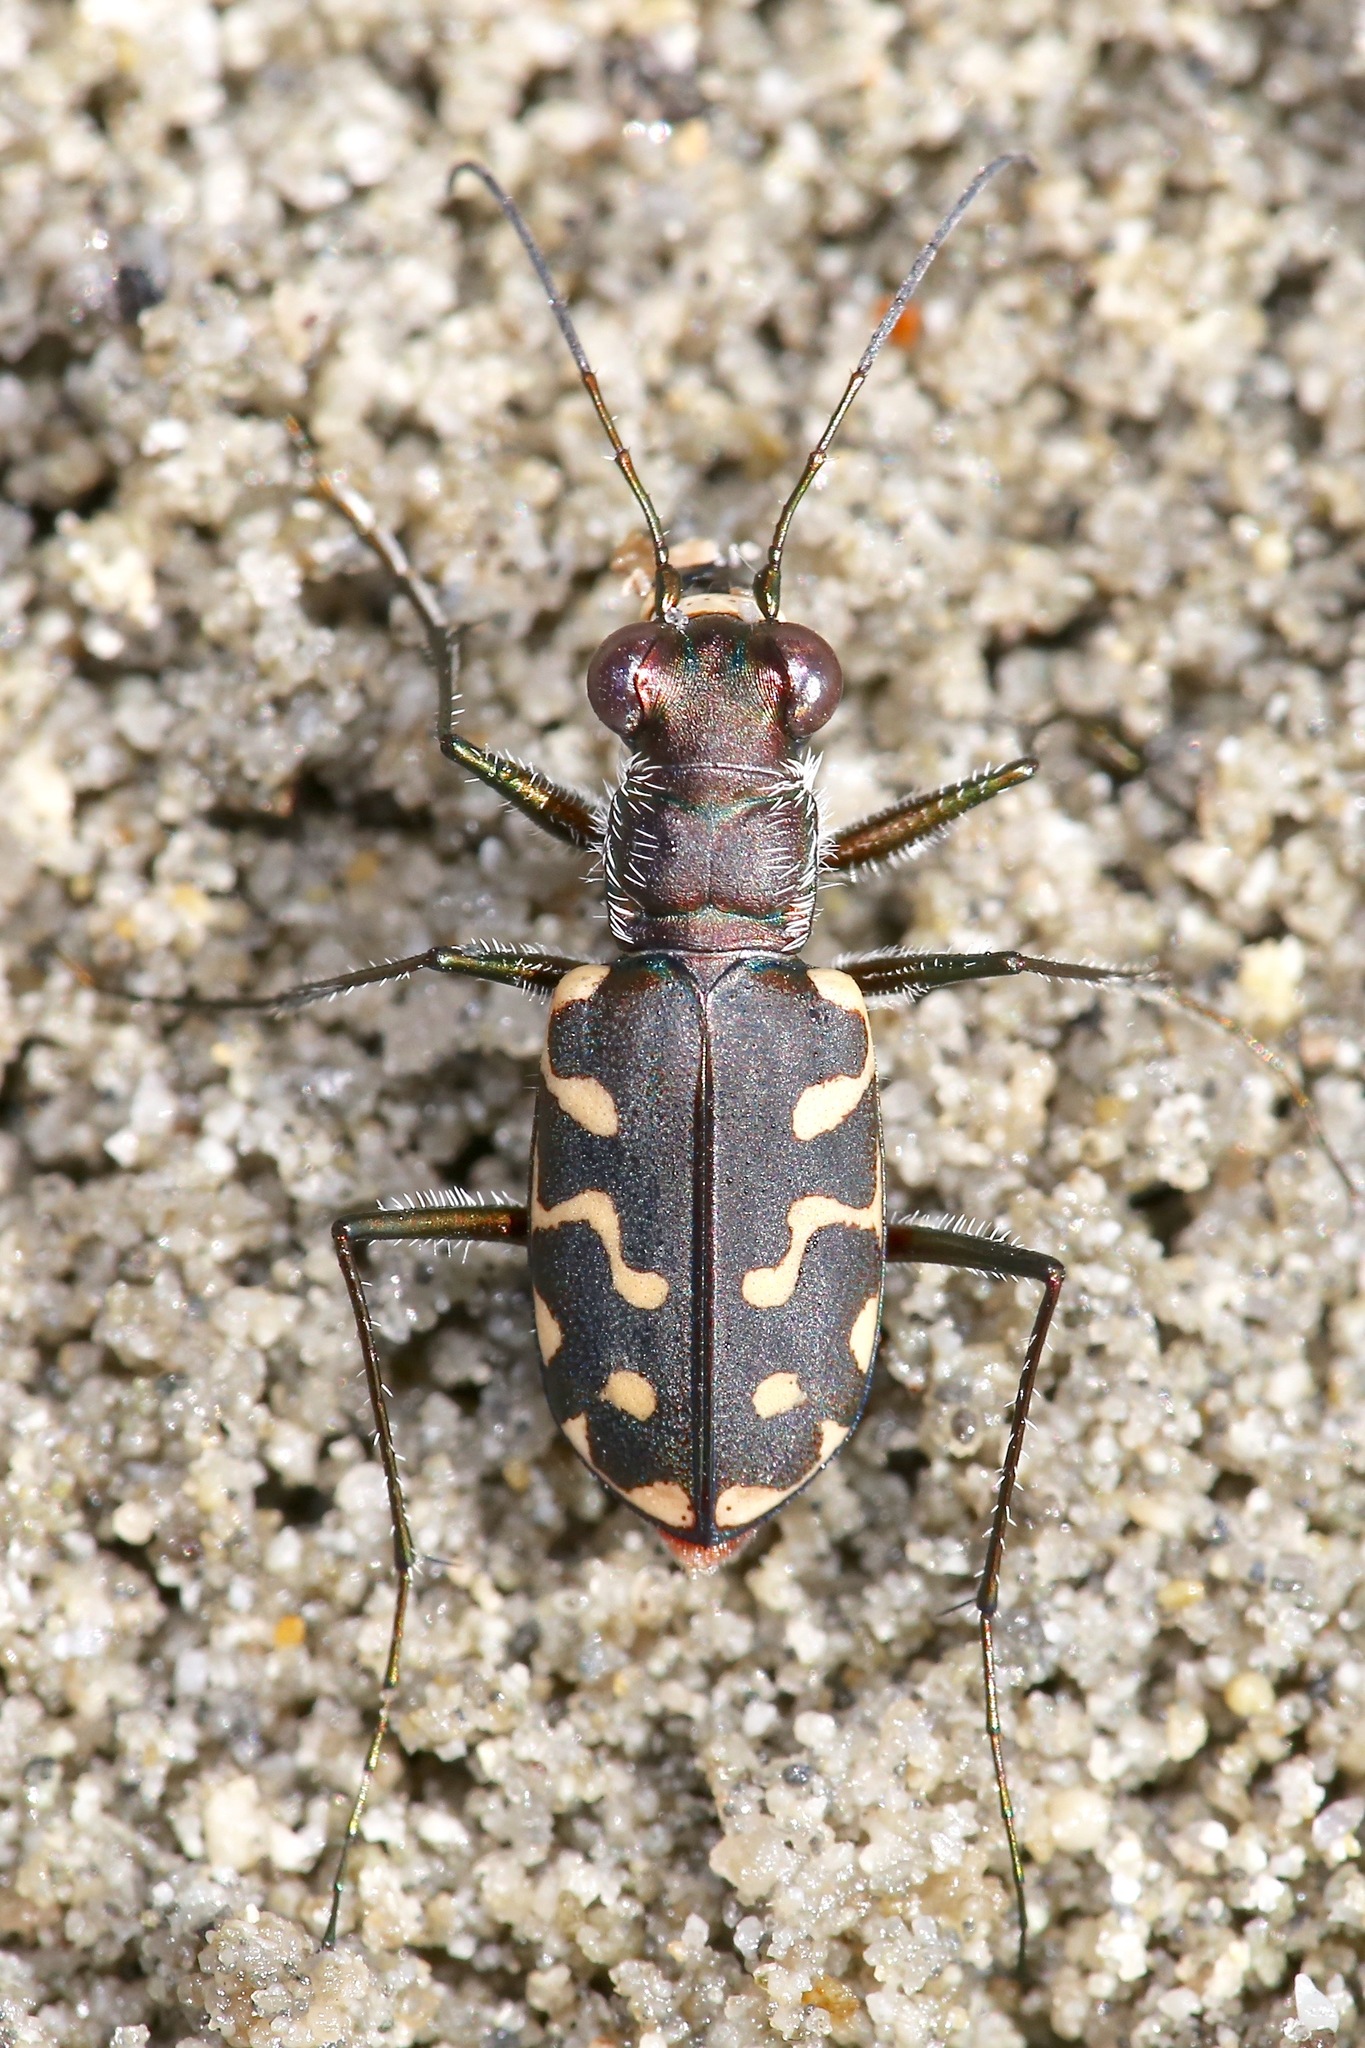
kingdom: Animalia
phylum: Arthropoda
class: Insecta
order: Coleoptera
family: Carabidae
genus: Cicindela
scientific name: Cicindela carthagena
